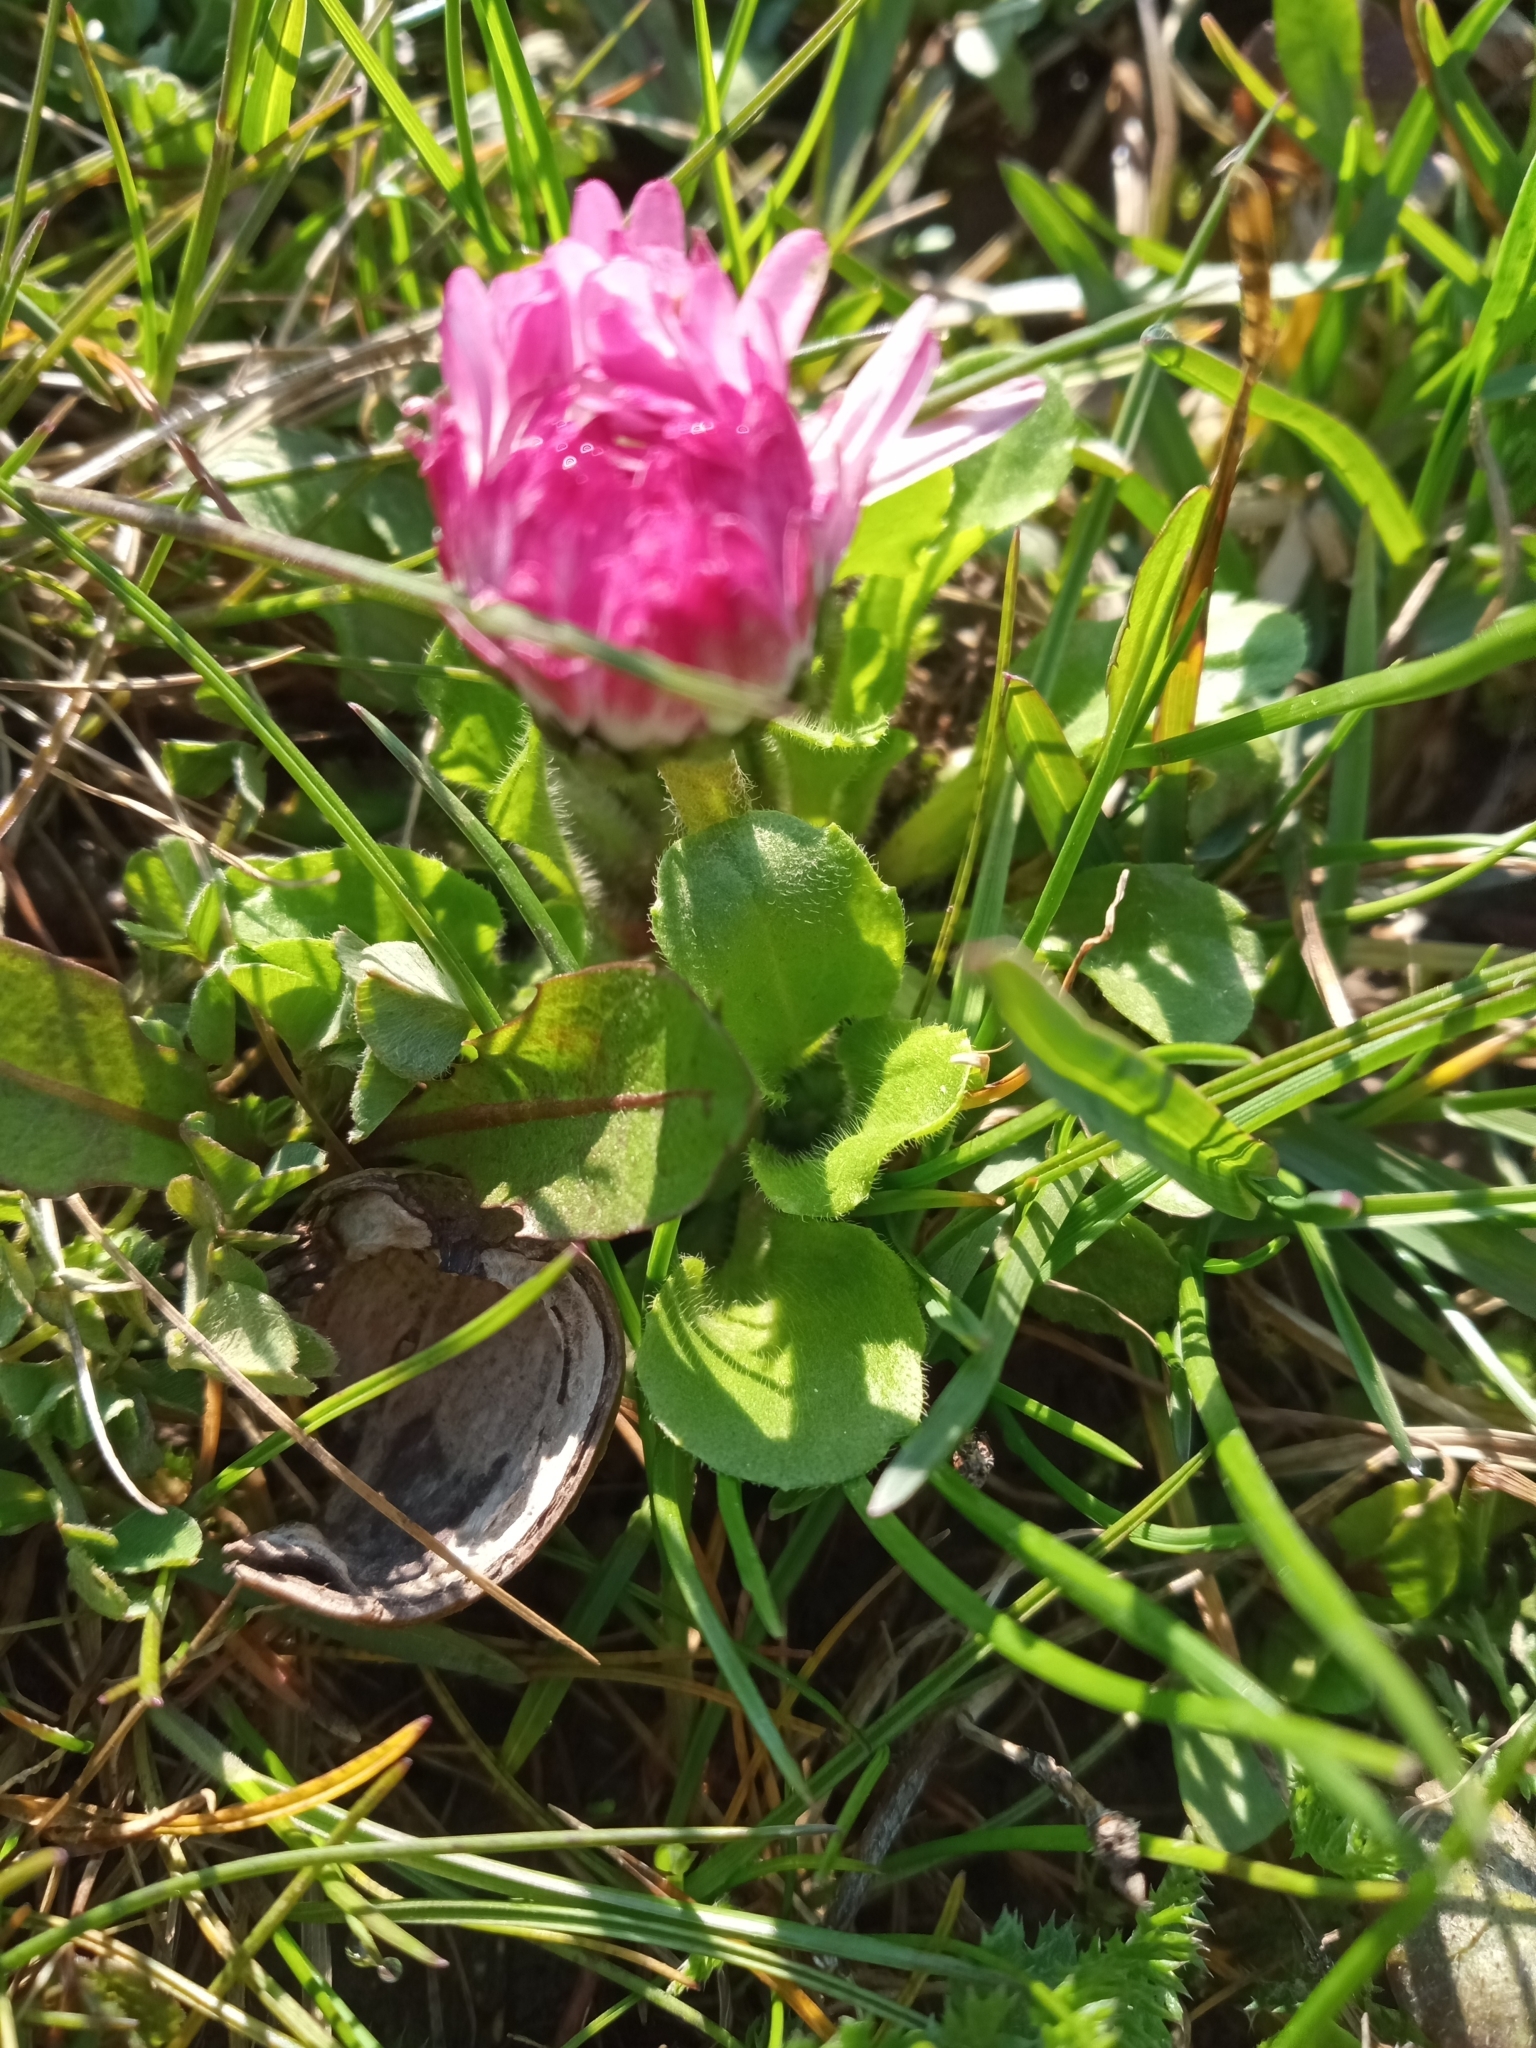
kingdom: Plantae
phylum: Tracheophyta
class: Magnoliopsida
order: Asterales
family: Asteraceae
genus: Bellis
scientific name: Bellis perennis
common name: Lawndaisy
